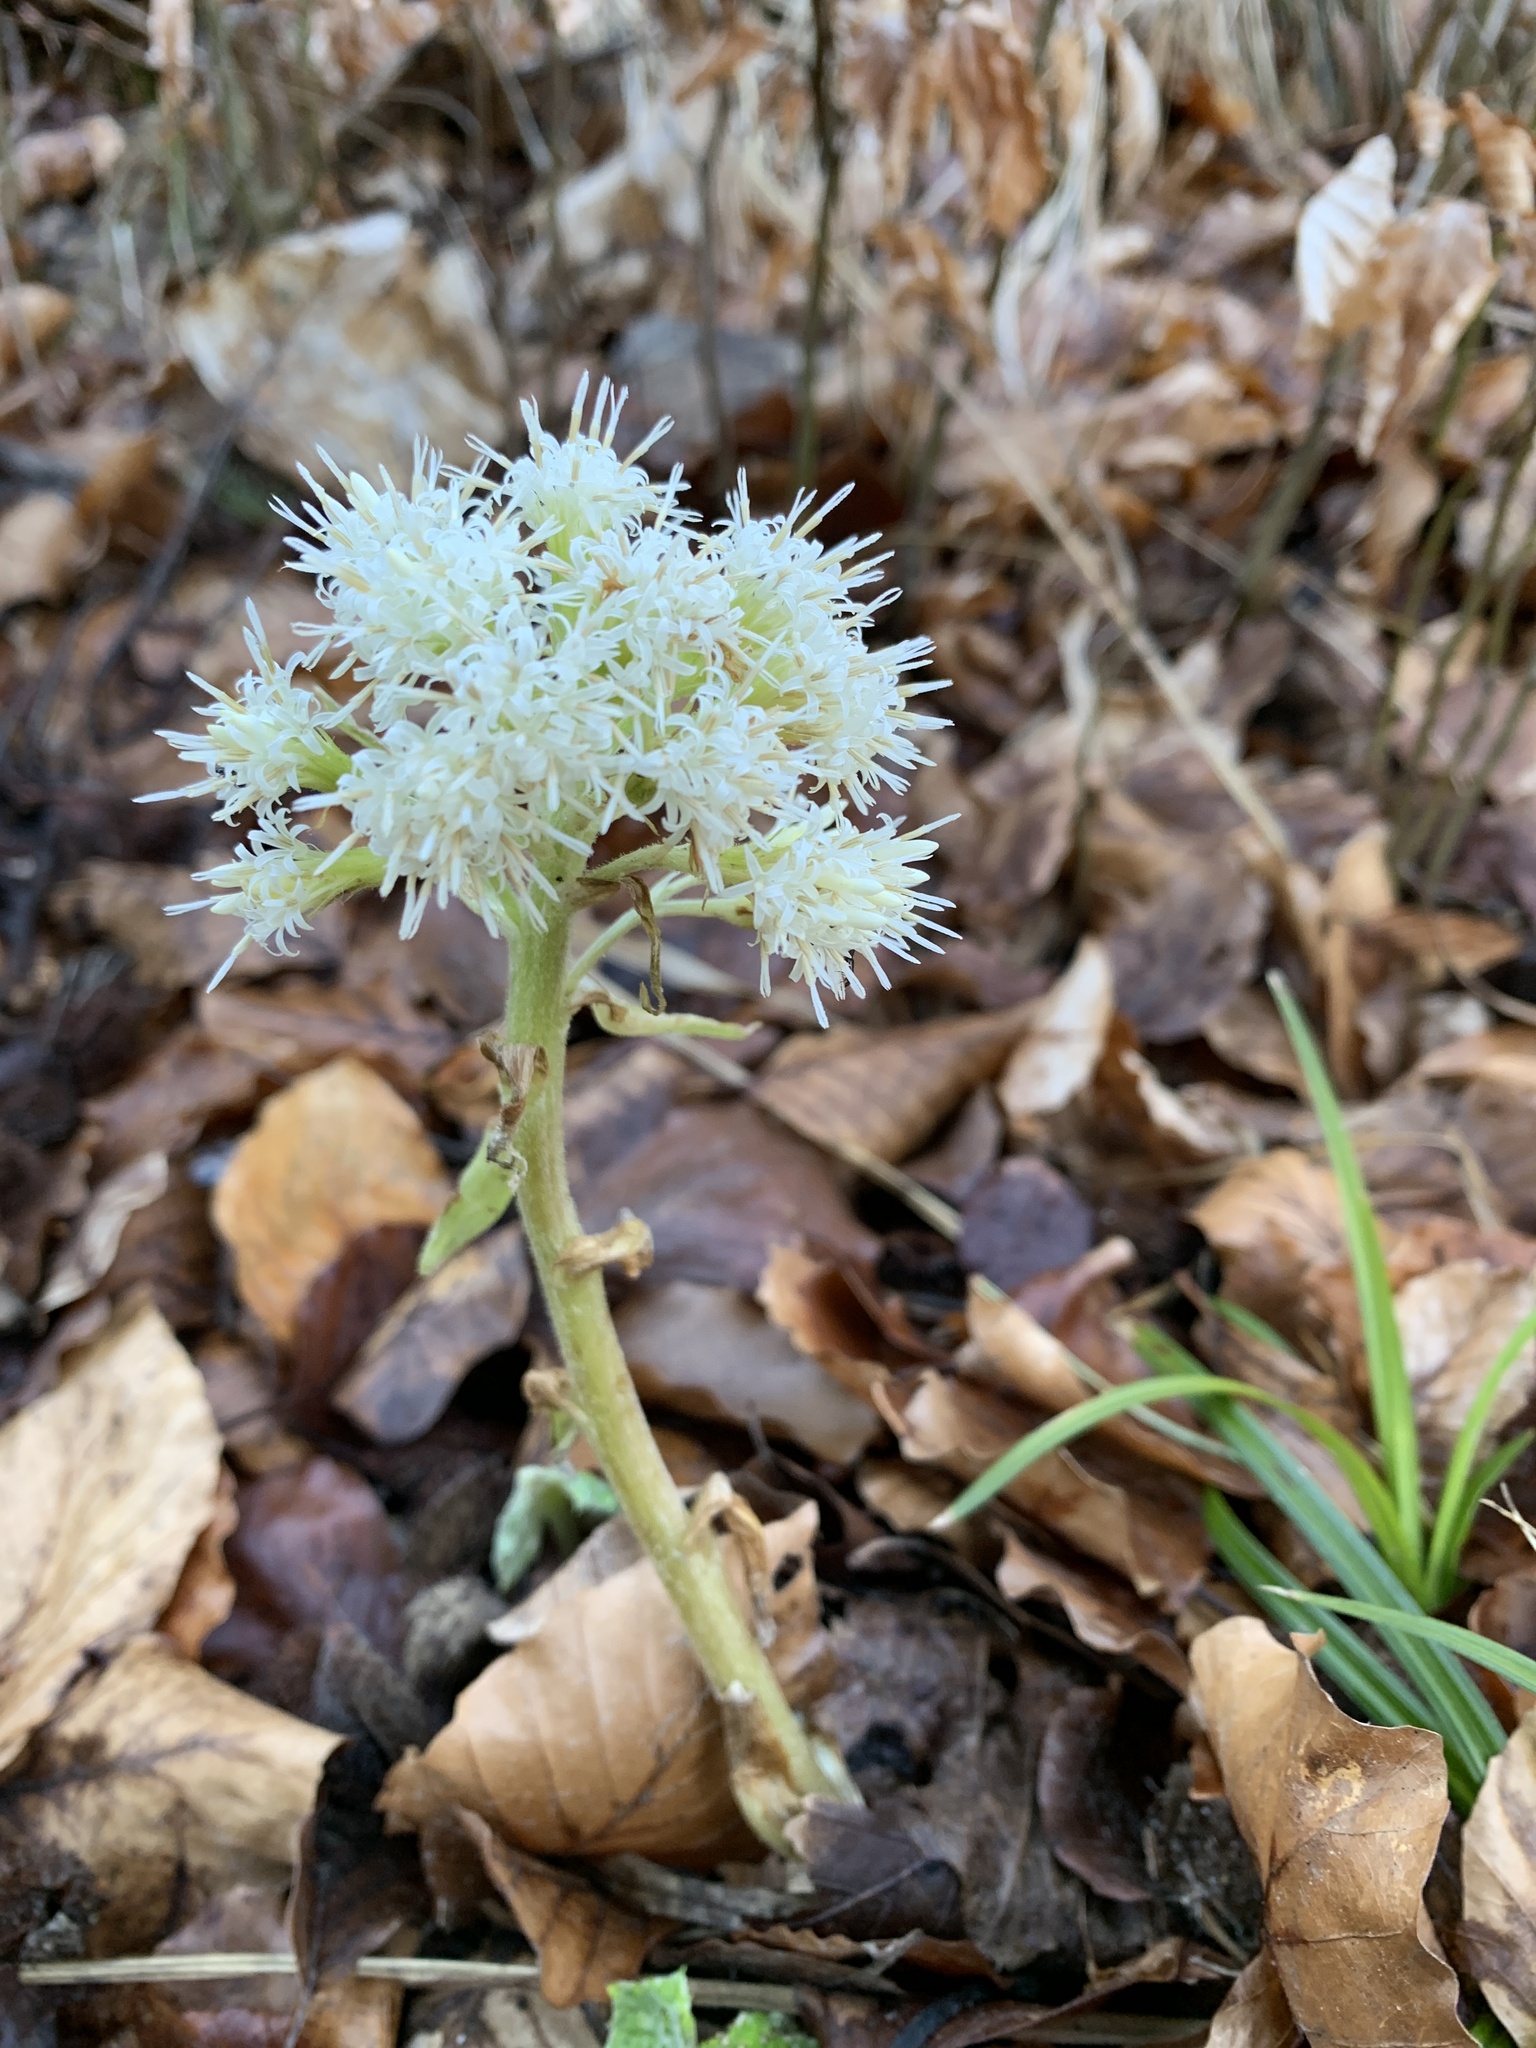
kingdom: Plantae
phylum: Tracheophyta
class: Magnoliopsida
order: Asterales
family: Asteraceae
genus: Petasites
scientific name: Petasites albus
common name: White butterbur
